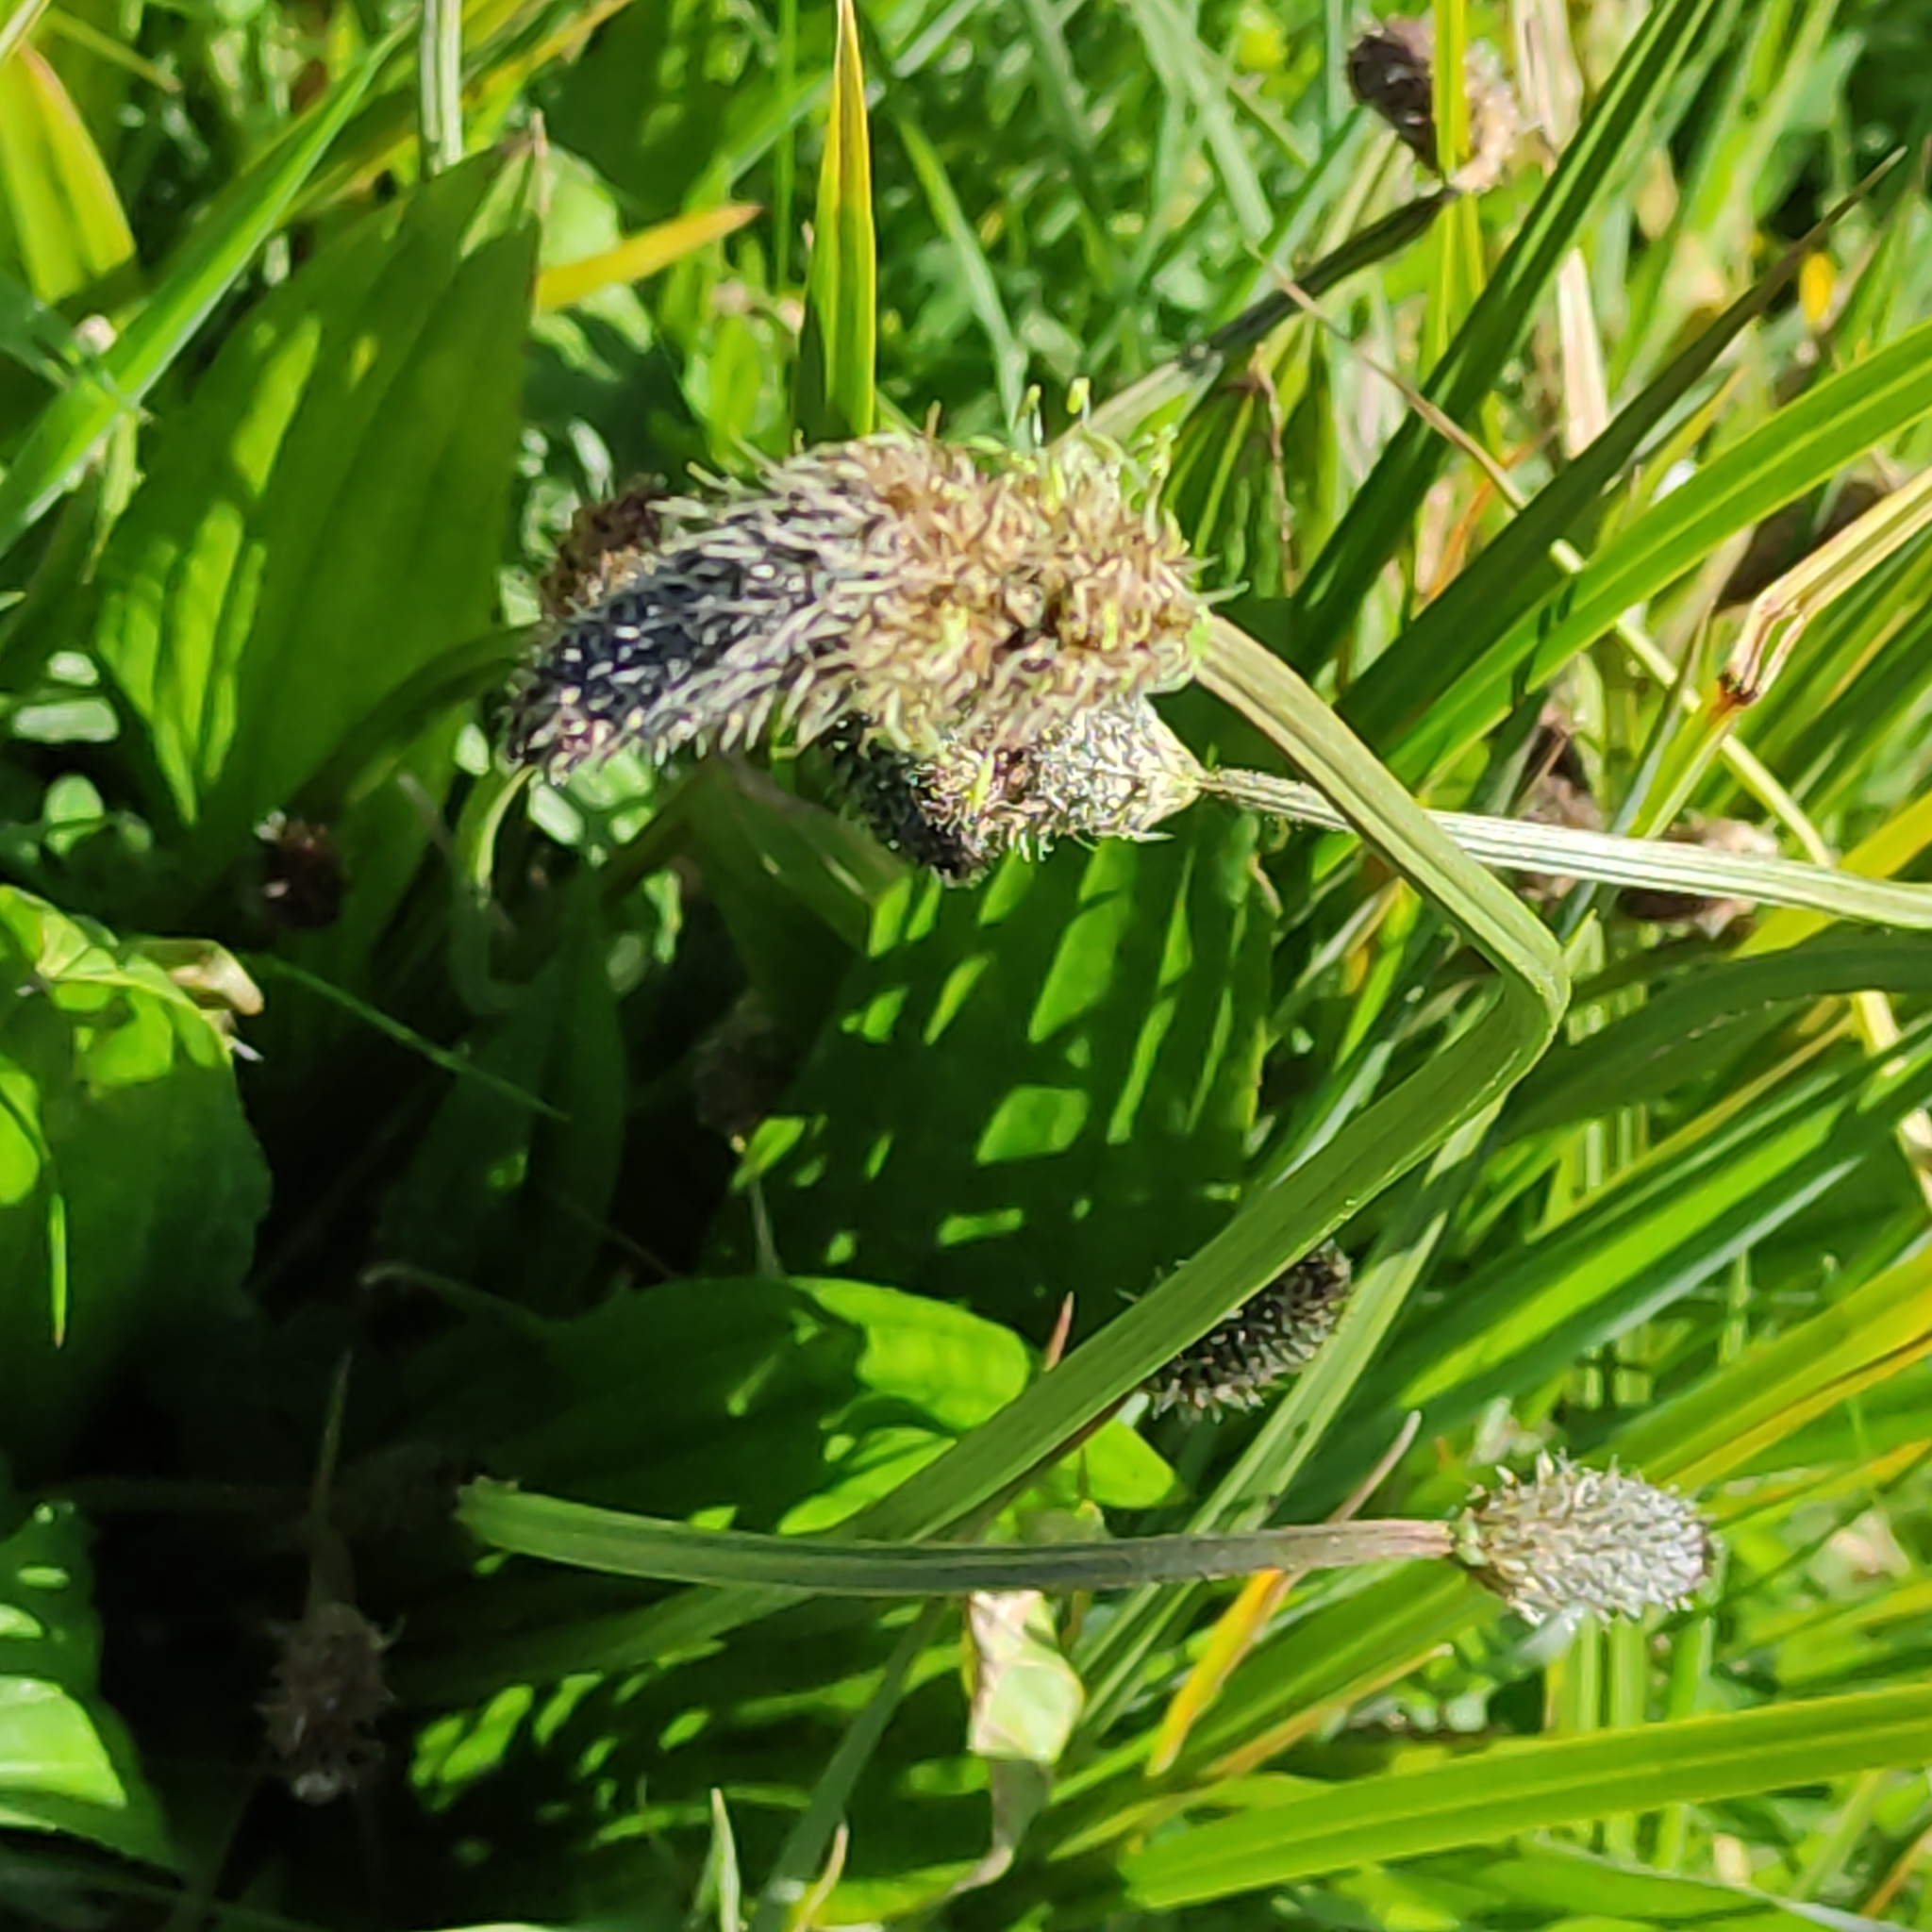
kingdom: Plantae
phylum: Tracheophyta
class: Magnoliopsida
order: Lamiales
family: Plantaginaceae
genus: Plantago
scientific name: Plantago lanceolata
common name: Ribwort plantain
